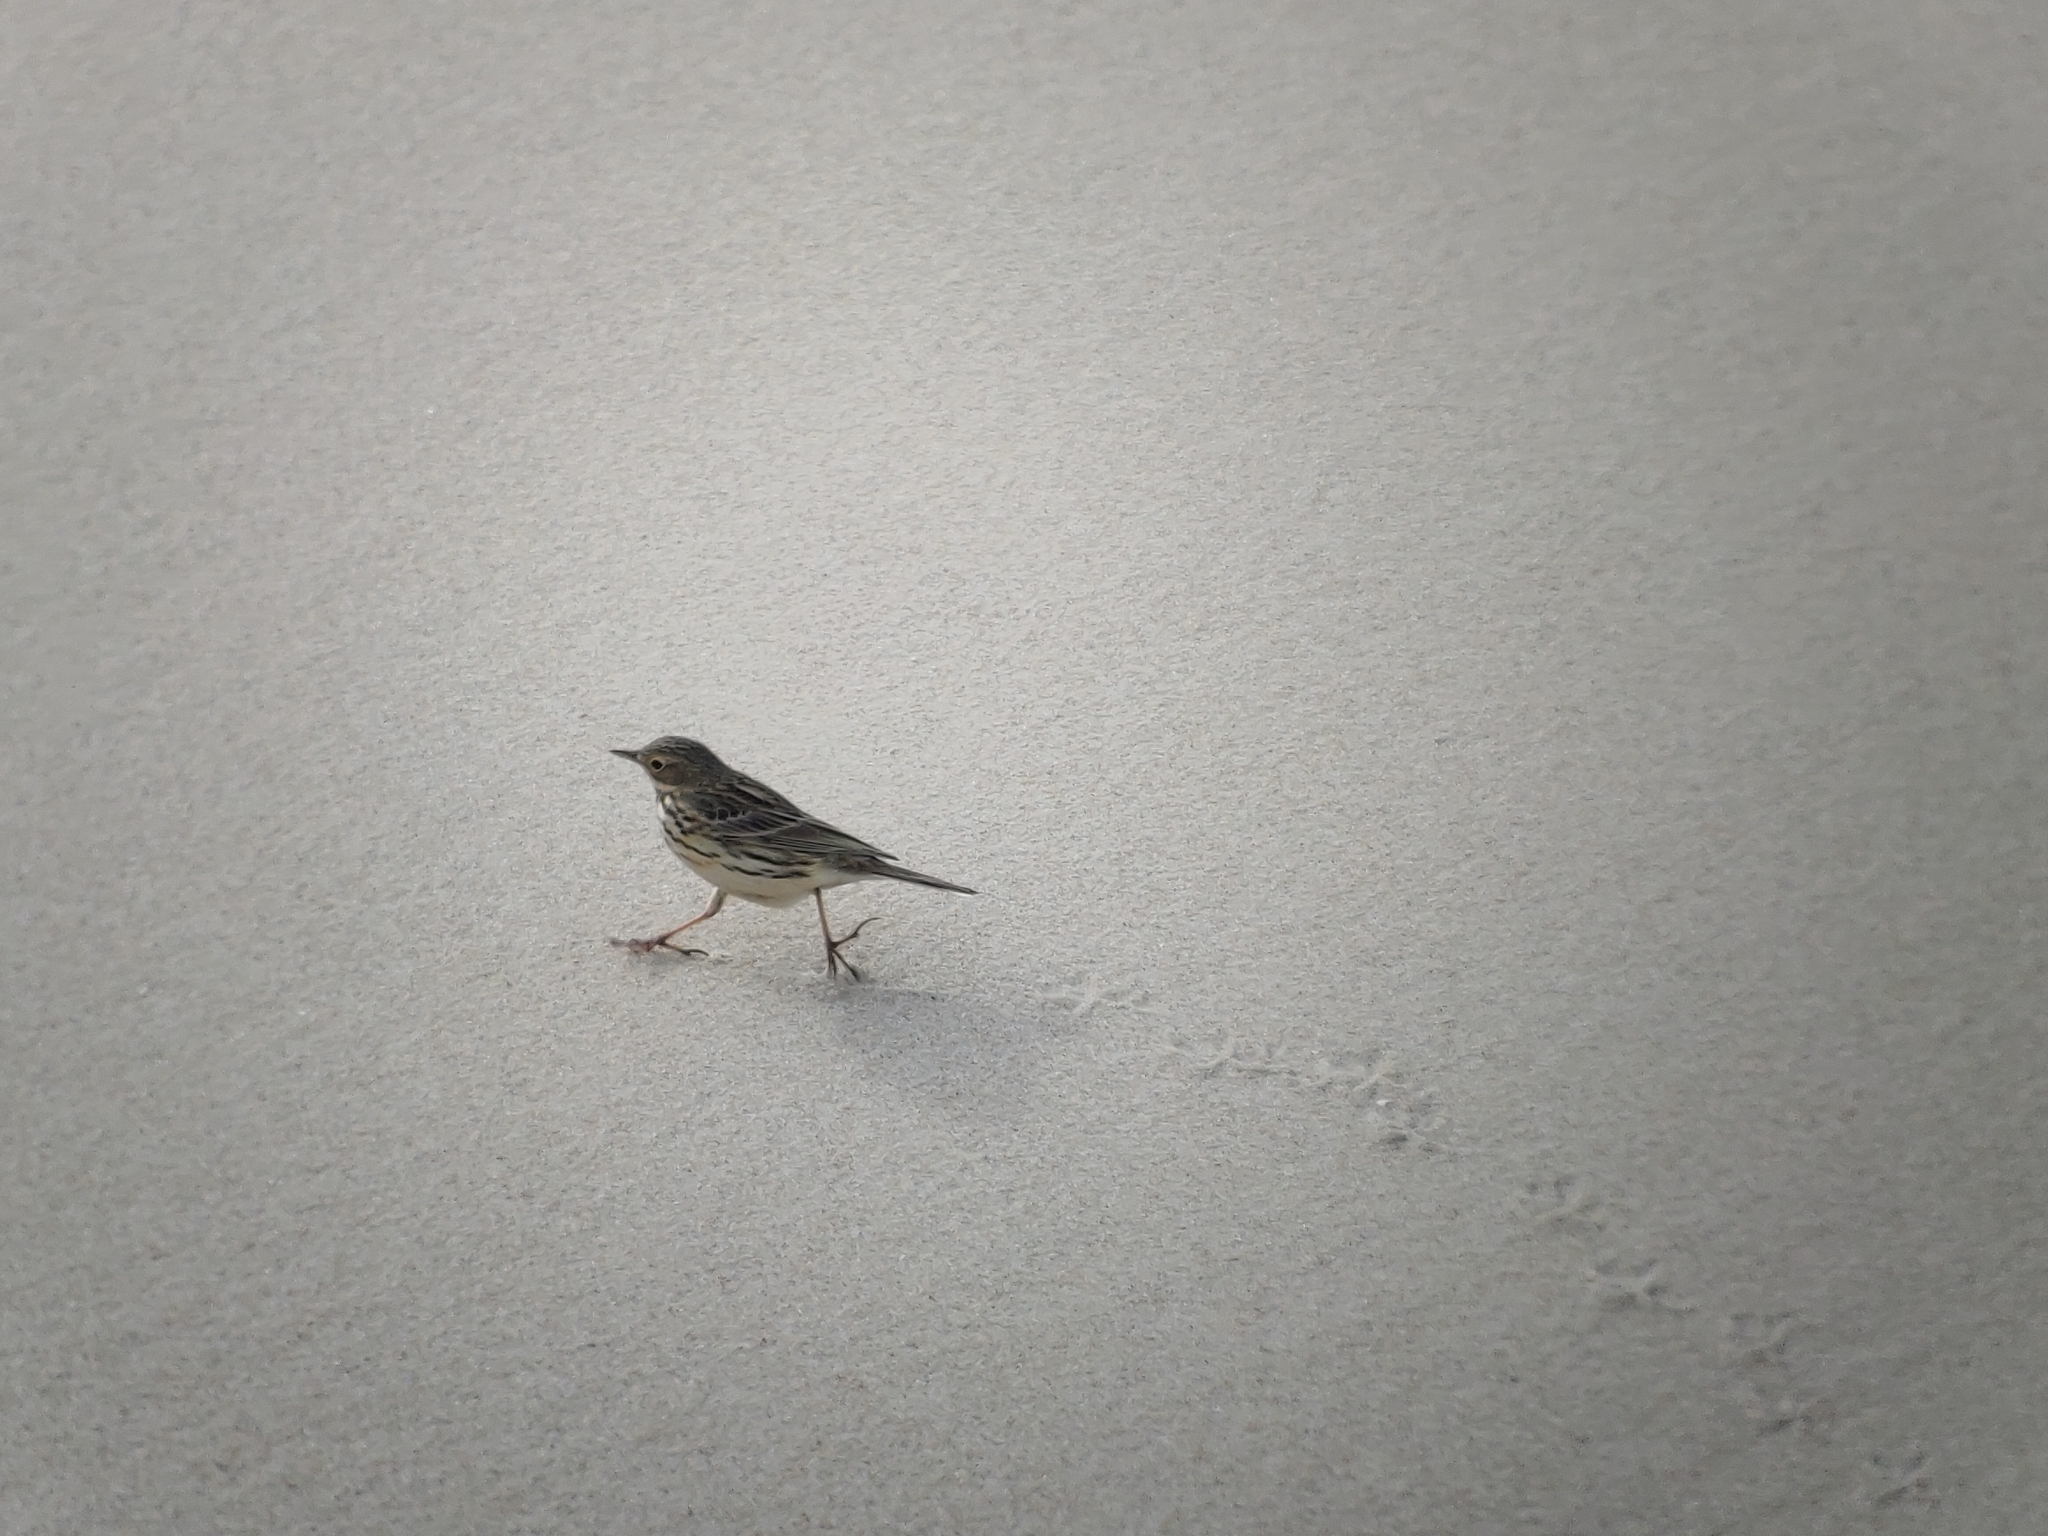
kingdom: Animalia
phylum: Chordata
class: Aves
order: Passeriformes
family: Motacillidae
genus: Anthus
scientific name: Anthus pratensis
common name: Meadow pipit
